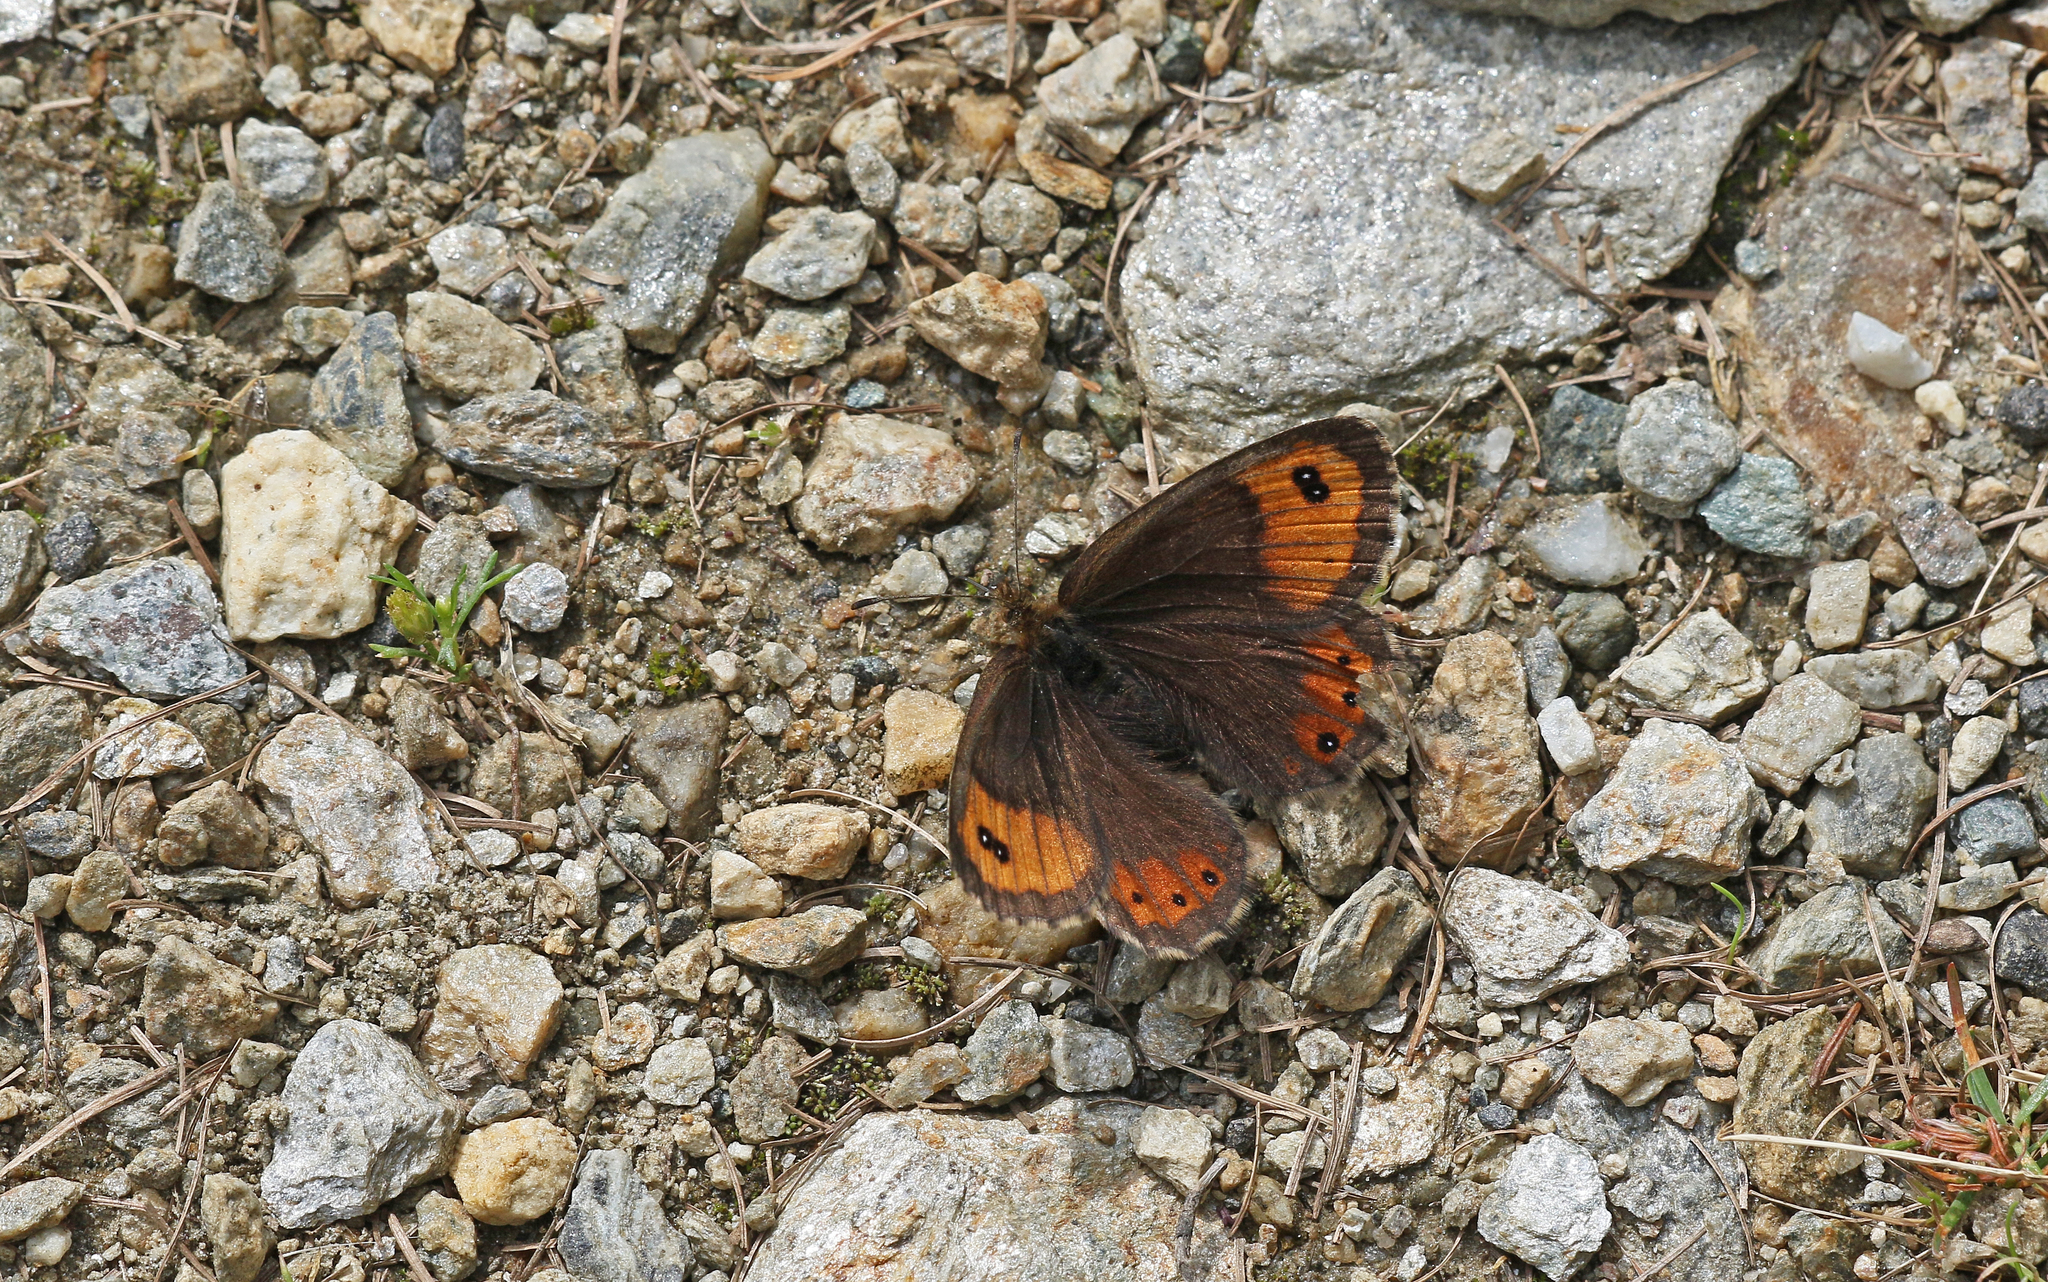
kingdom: Animalia
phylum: Arthropoda
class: Insecta
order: Lepidoptera
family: Nymphalidae
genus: Erebia
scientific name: Erebia montanus
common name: Marbled ringlet
